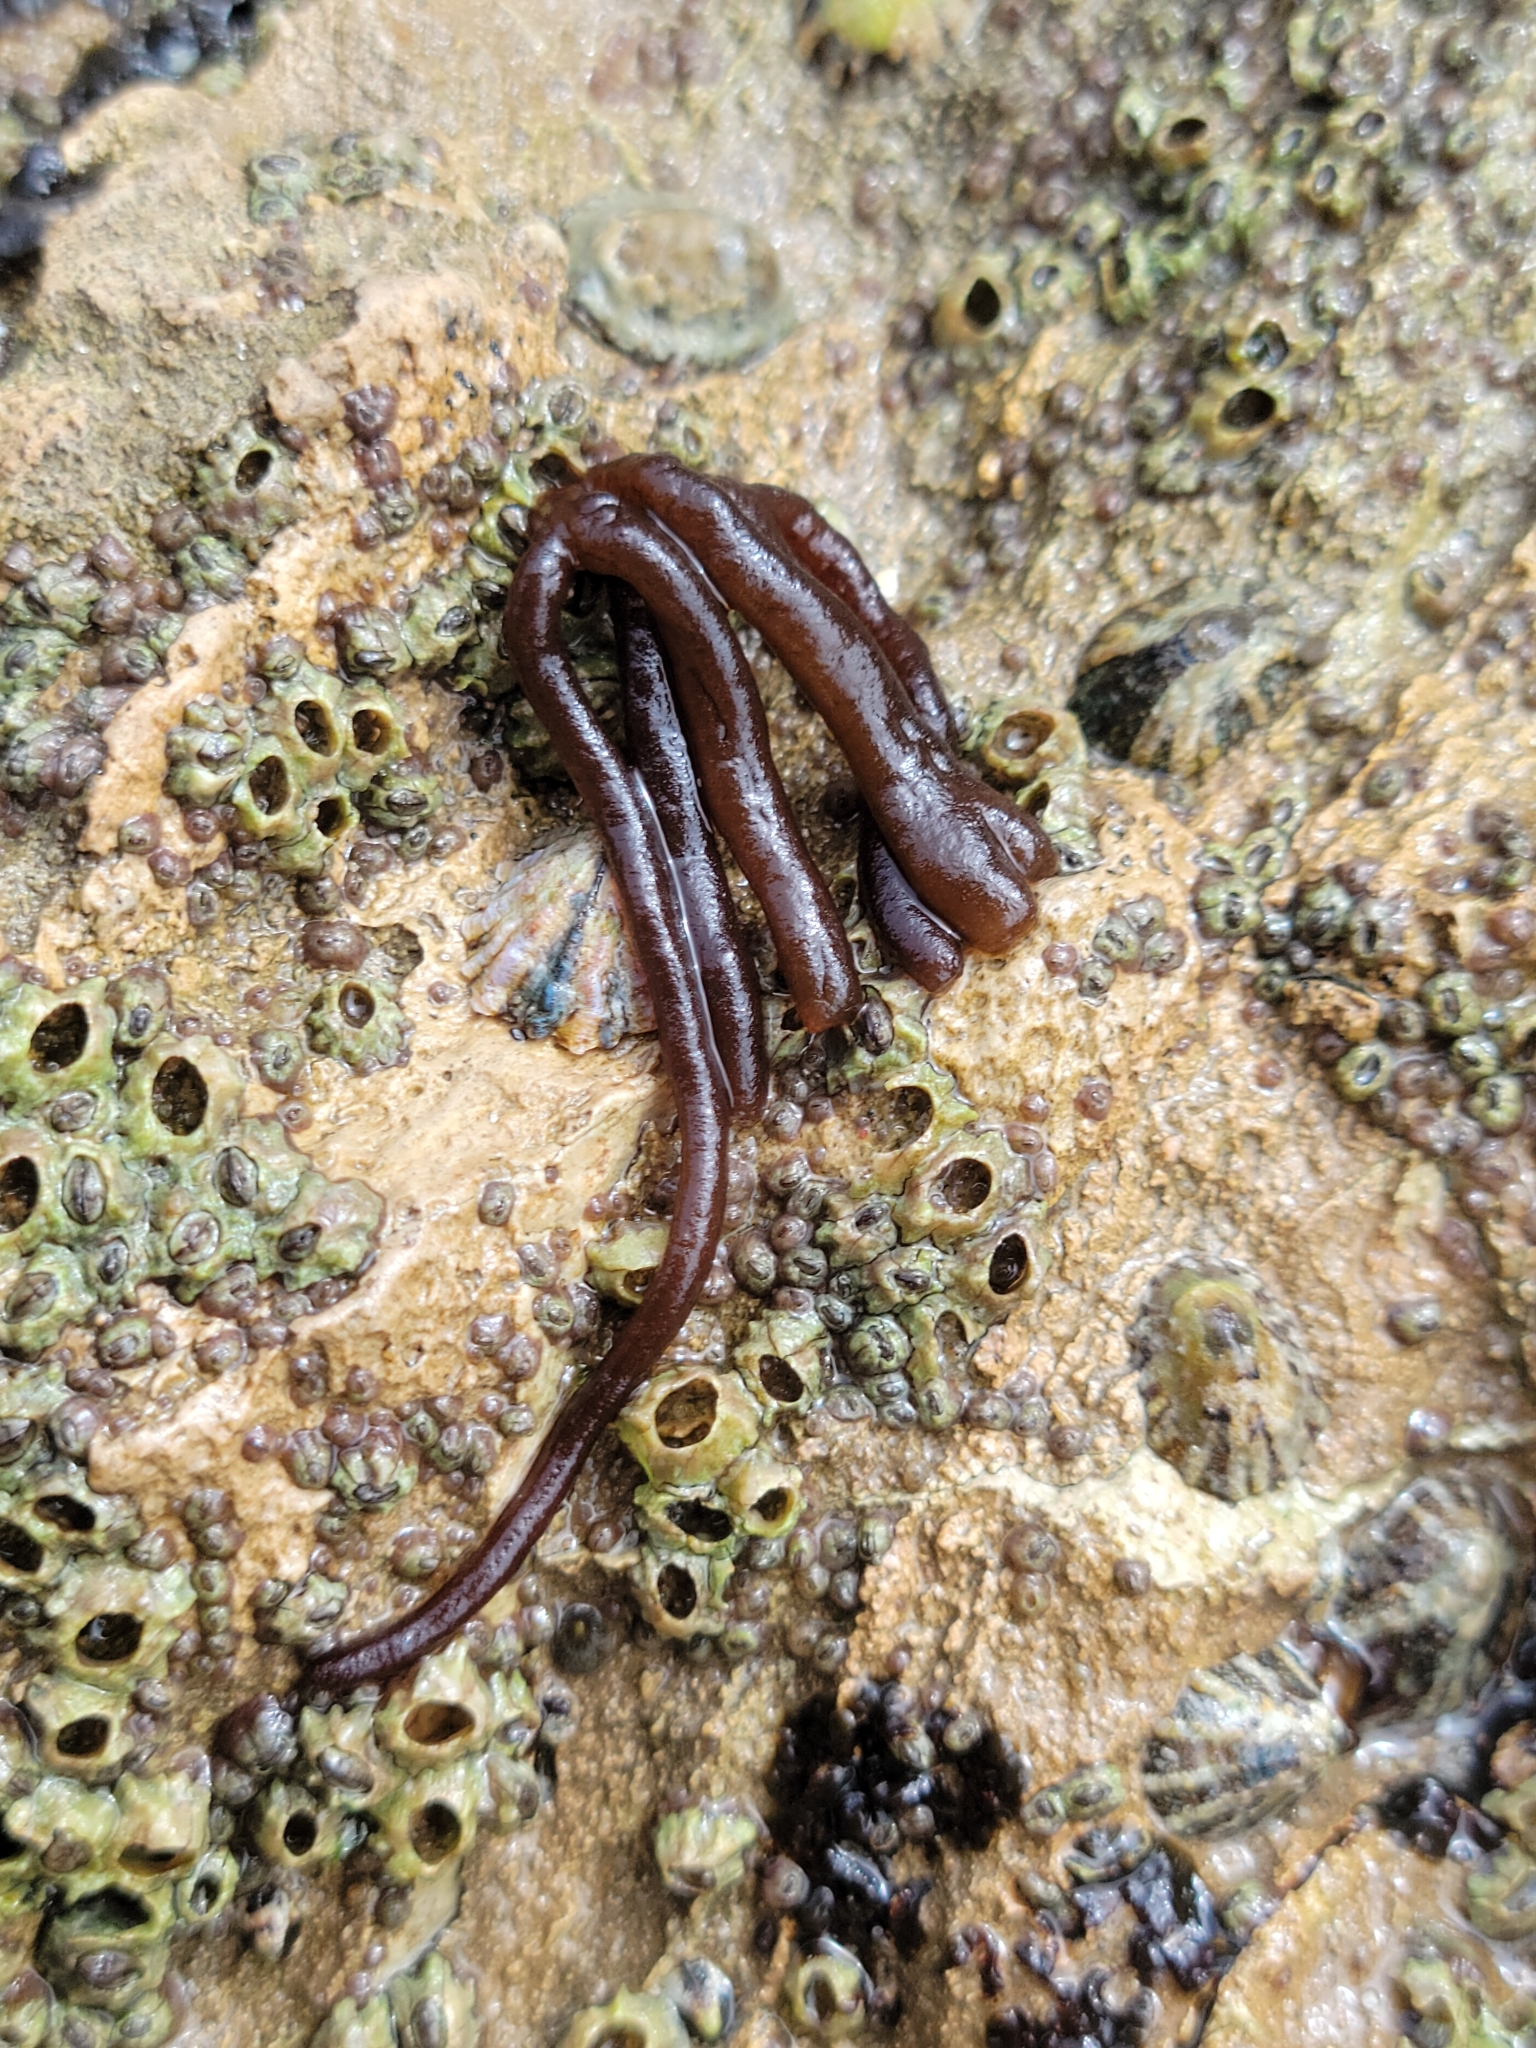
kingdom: Plantae
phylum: Rhodophyta
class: Florideophyceae
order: Nemaliales
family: Nemaliaceae
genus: Nemalion
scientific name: Nemalion elminthoides
